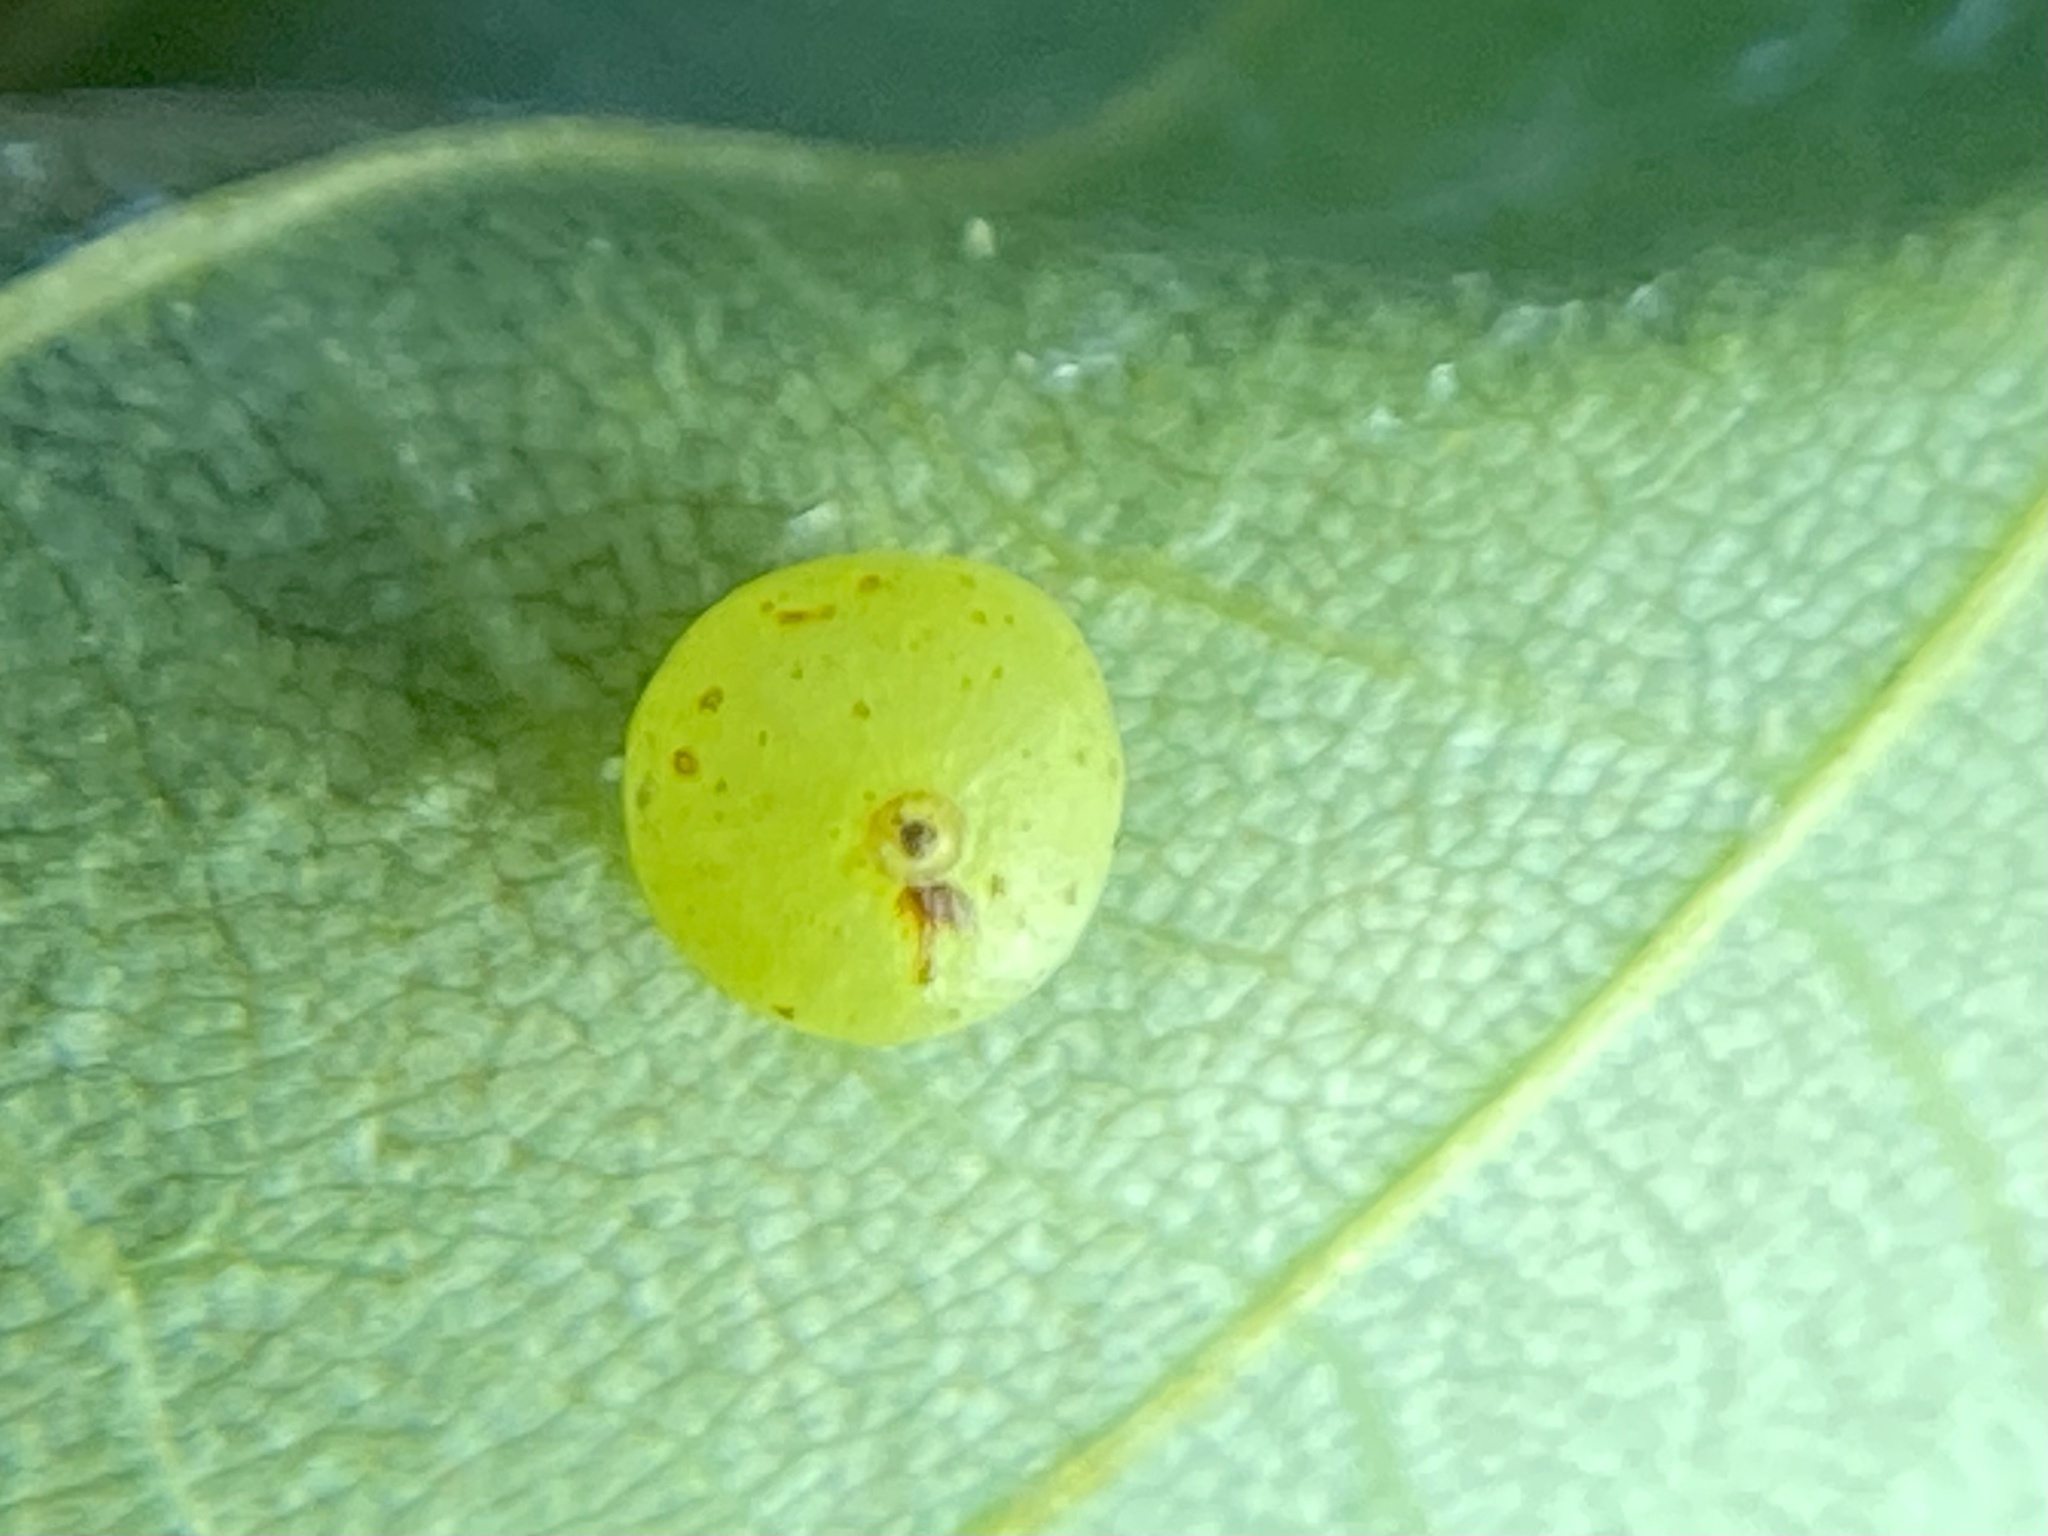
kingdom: Animalia
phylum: Arthropoda
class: Insecta
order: Diptera
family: Cecidomyiidae
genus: Caryomyia
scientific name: Caryomyia leviglobus
